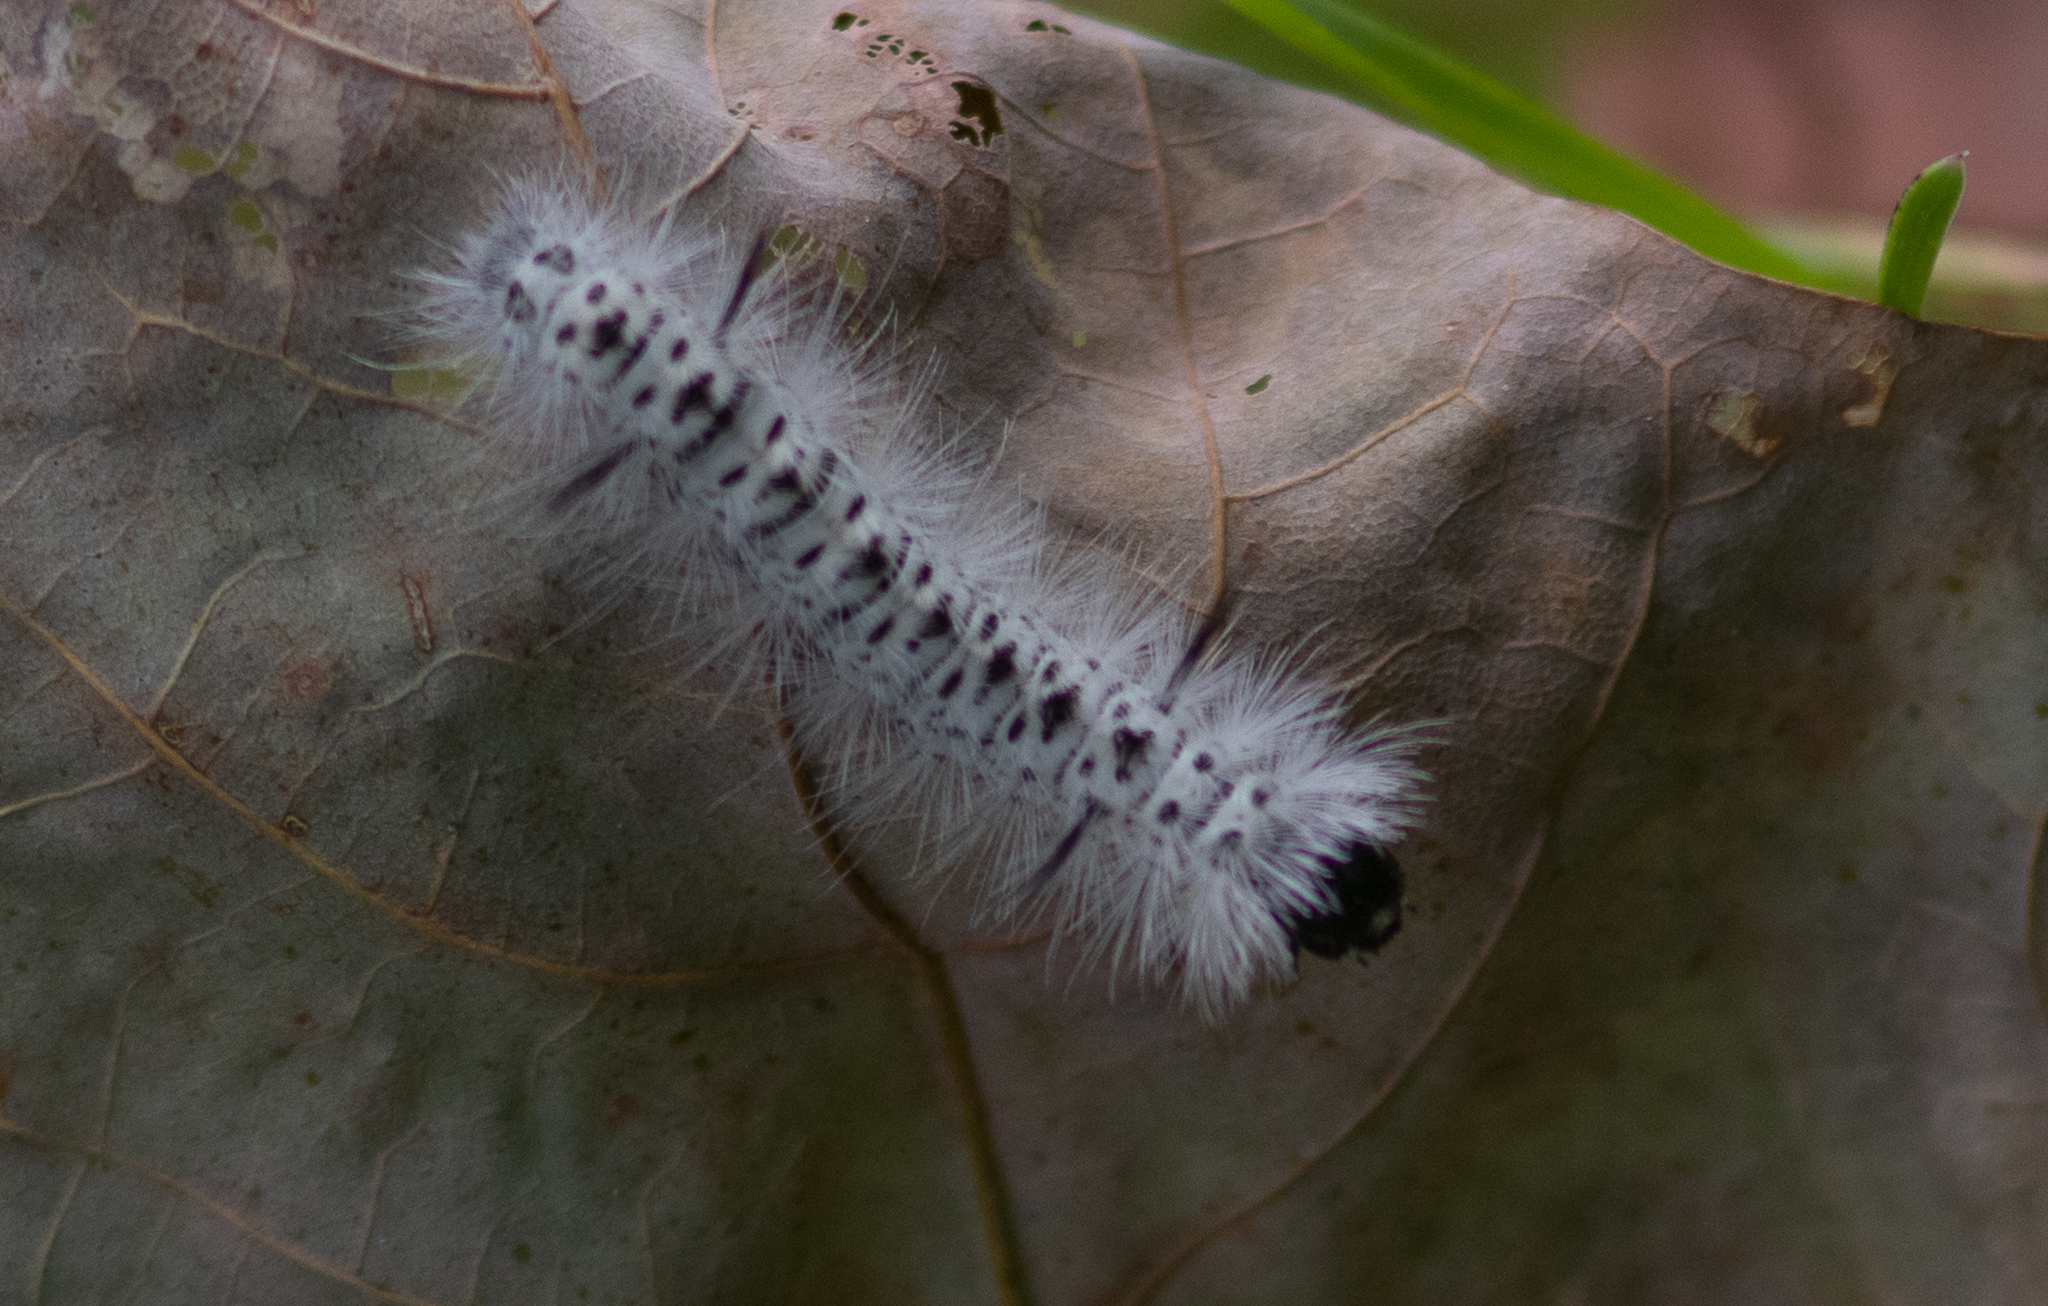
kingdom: Animalia
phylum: Arthropoda
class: Insecta
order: Lepidoptera
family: Erebidae
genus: Lophocampa
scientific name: Lophocampa caryae
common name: Hickory tussock moth
